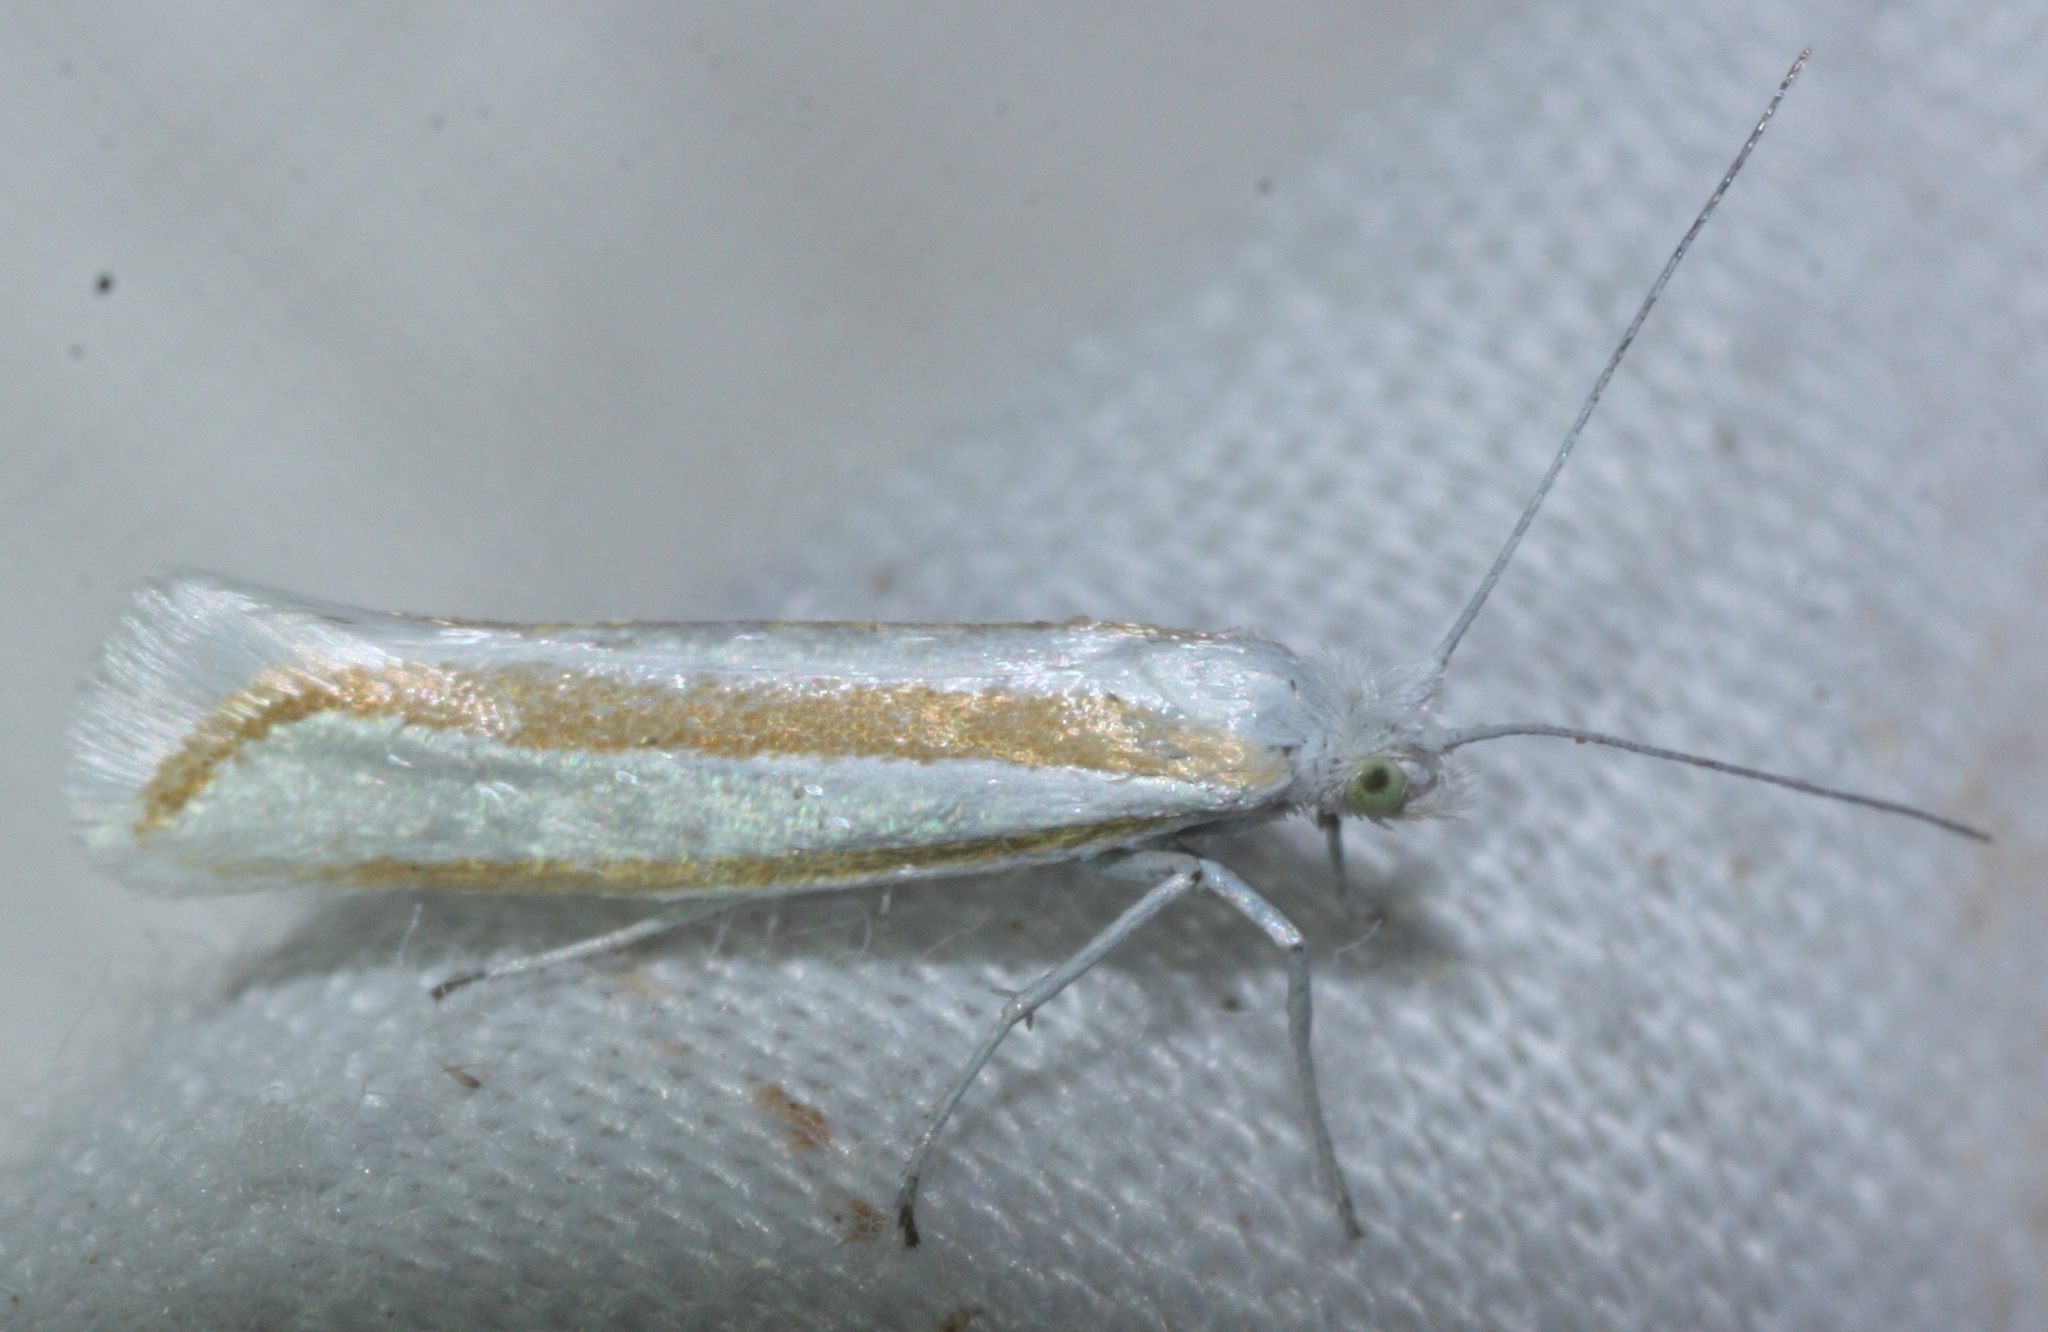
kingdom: Animalia
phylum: Arthropoda
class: Insecta
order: Lepidoptera
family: Ypsolophidae
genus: Ypsolopha
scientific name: Ypsolopha cockerella
